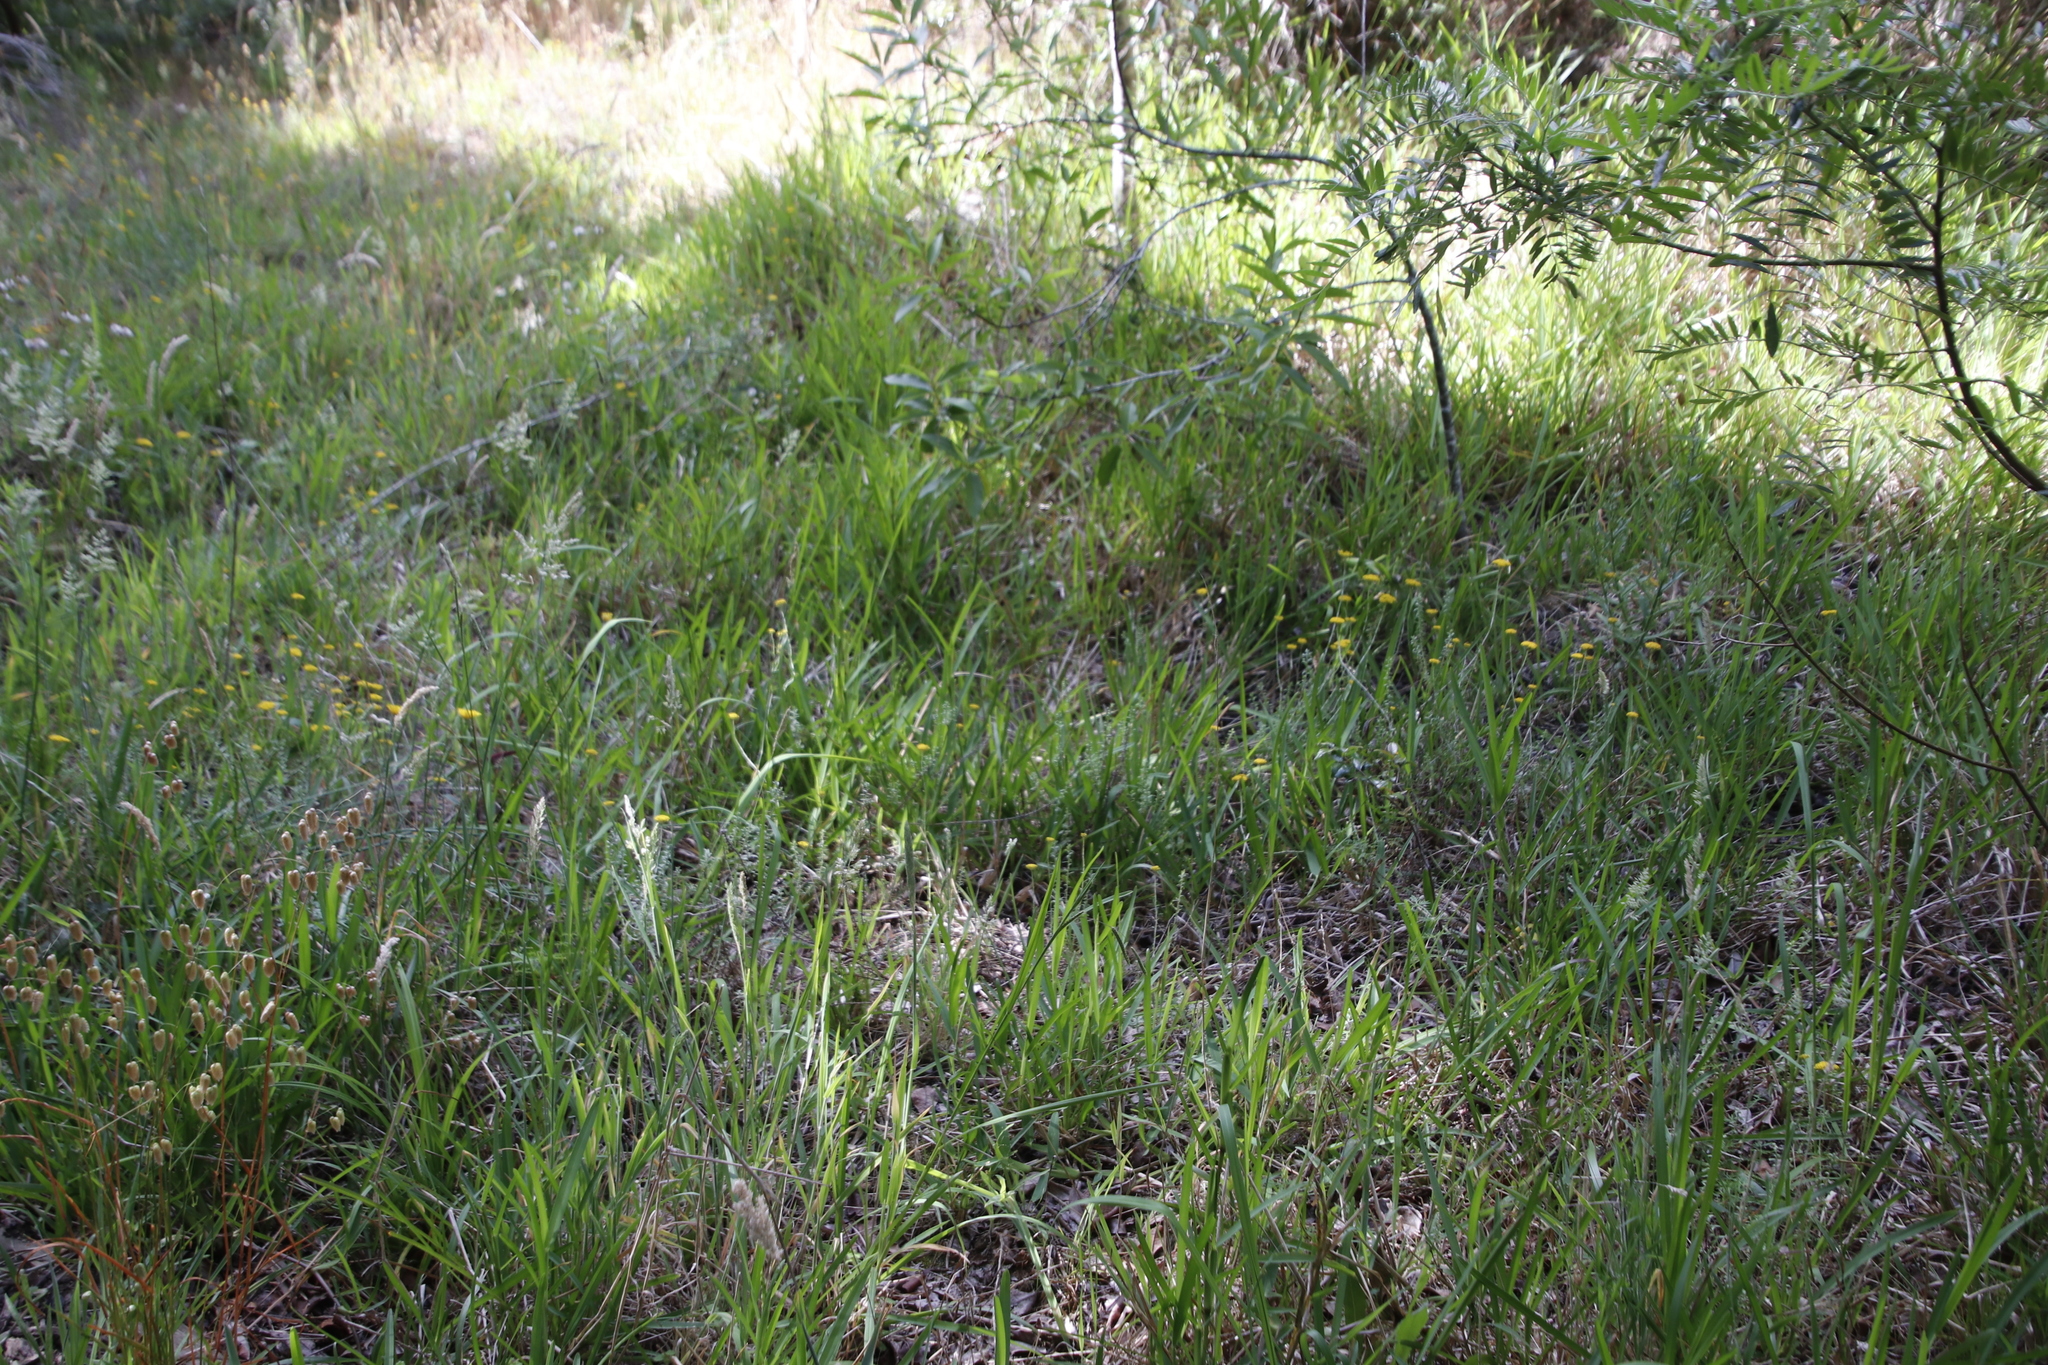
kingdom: Plantae
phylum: Tracheophyta
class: Liliopsida
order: Poales
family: Poaceae
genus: Stenotaphrum
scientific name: Stenotaphrum secundatum
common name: St. augustine grass
